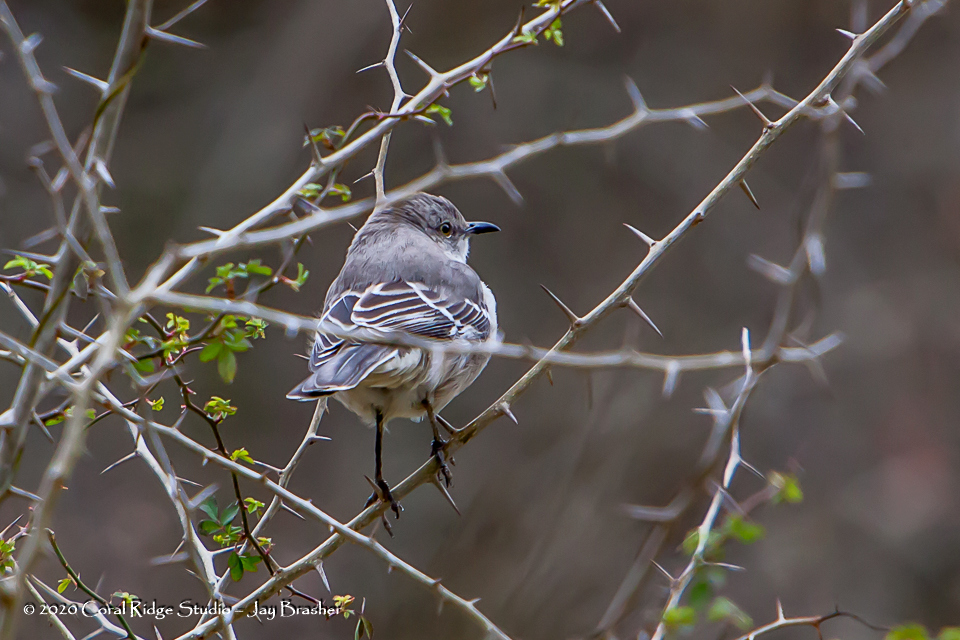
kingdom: Animalia
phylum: Chordata
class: Aves
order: Passeriformes
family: Mimidae
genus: Mimus
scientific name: Mimus polyglottos
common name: Northern mockingbird
